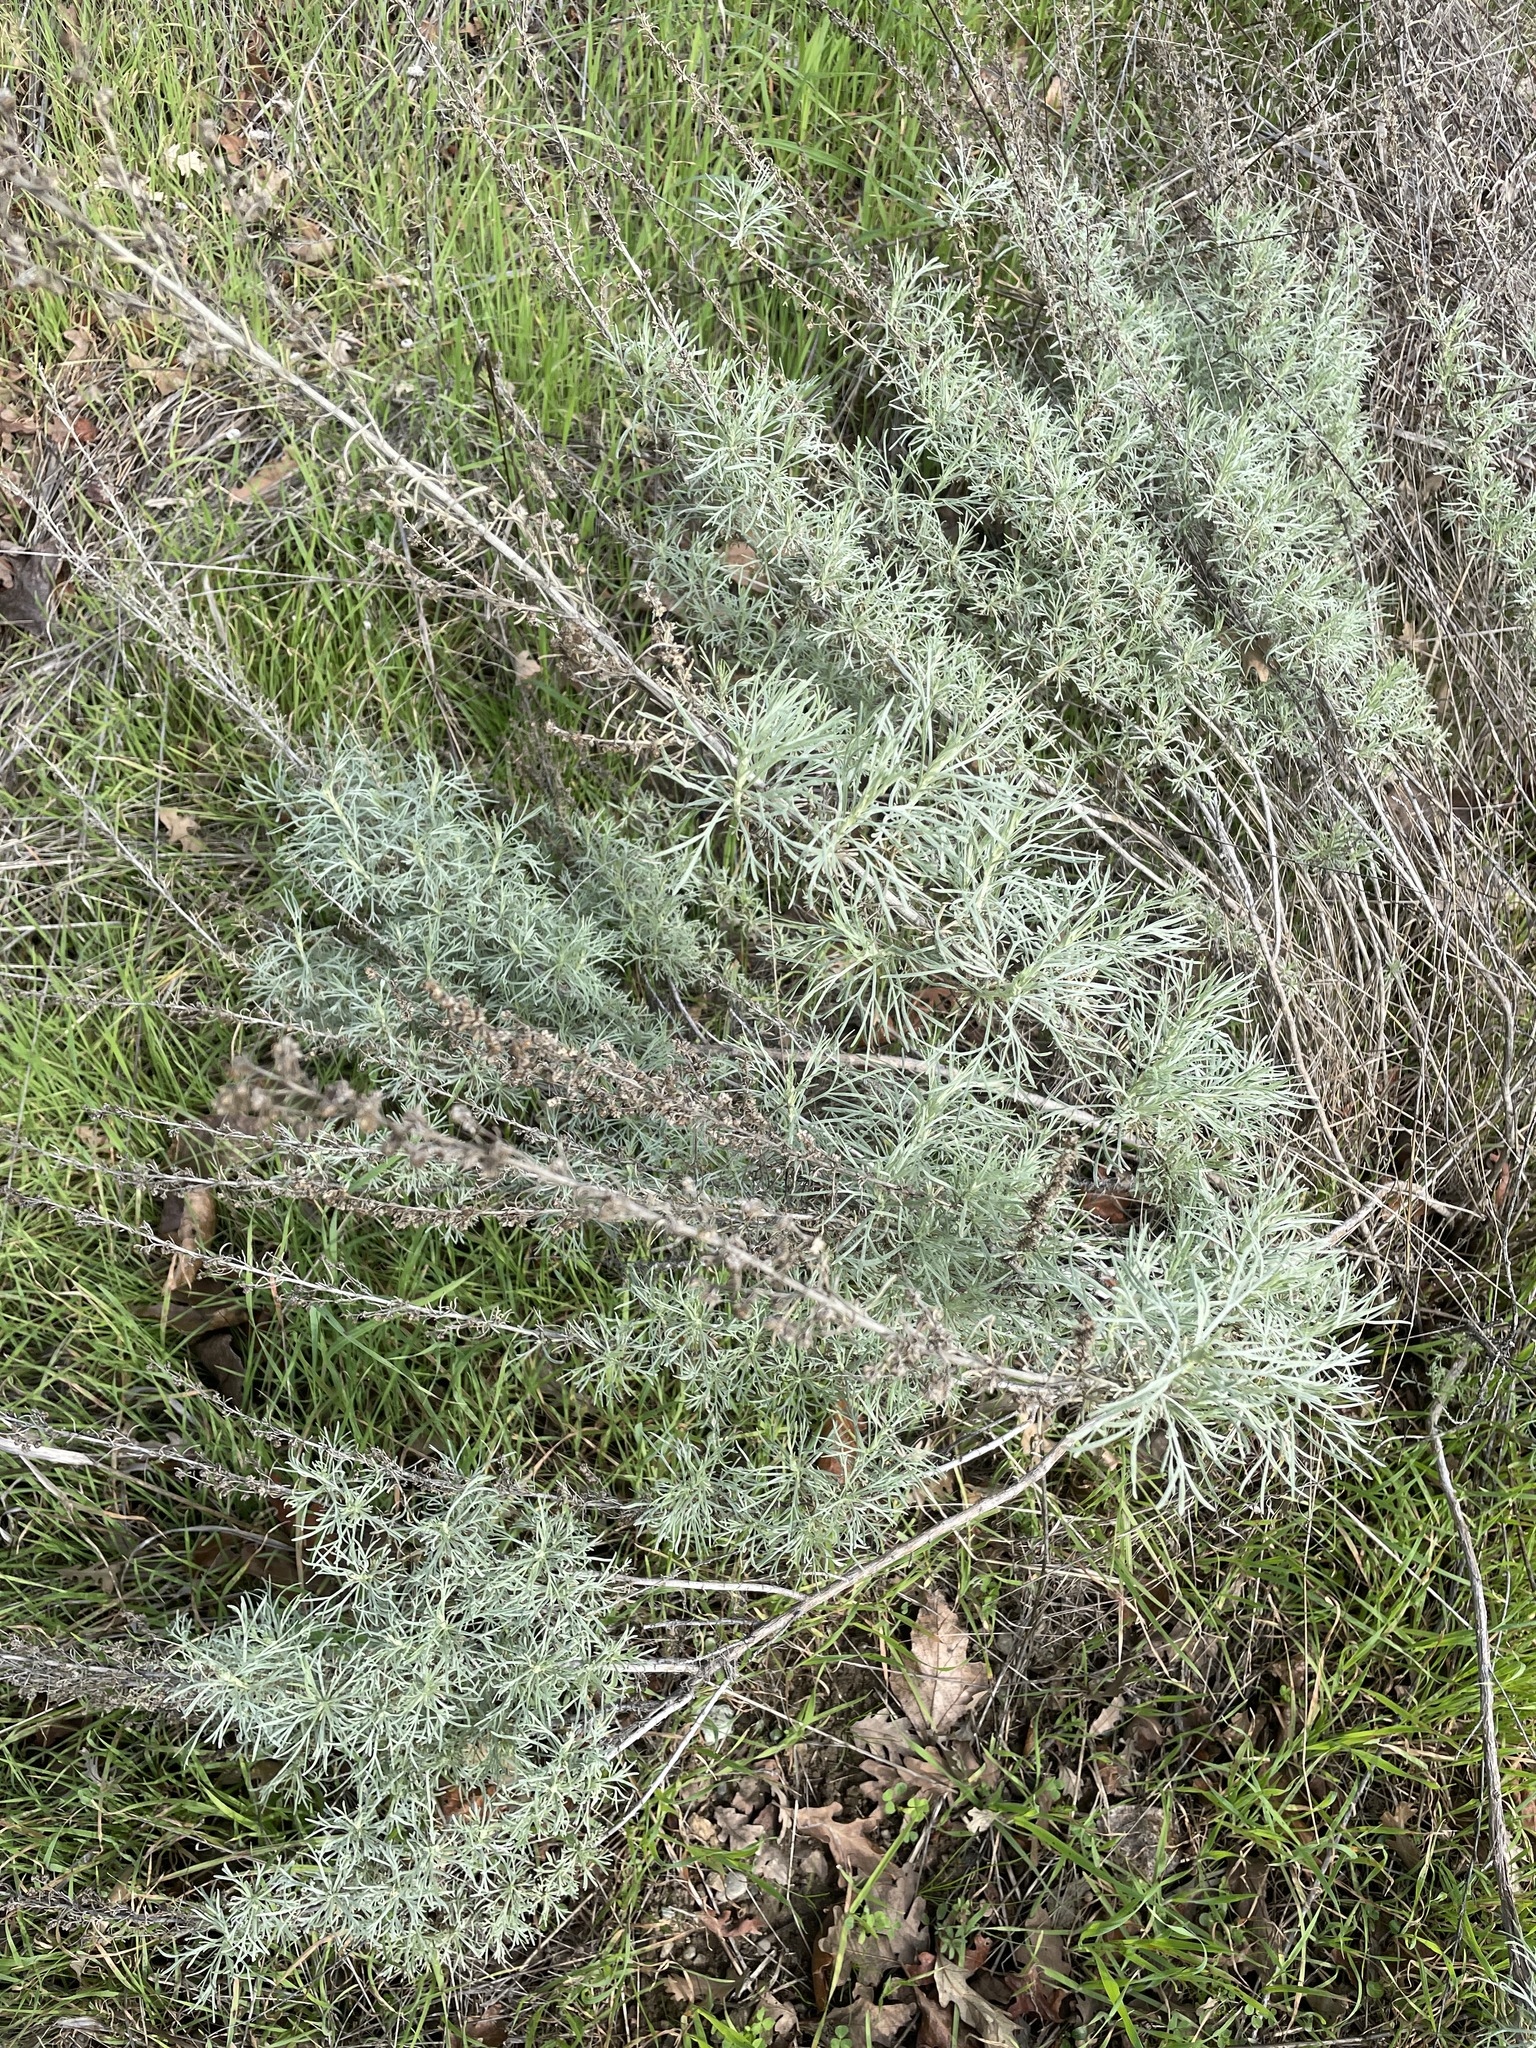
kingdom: Plantae
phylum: Tracheophyta
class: Magnoliopsida
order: Asterales
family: Asteraceae
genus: Artemisia
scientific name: Artemisia californica
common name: California sagebrush
